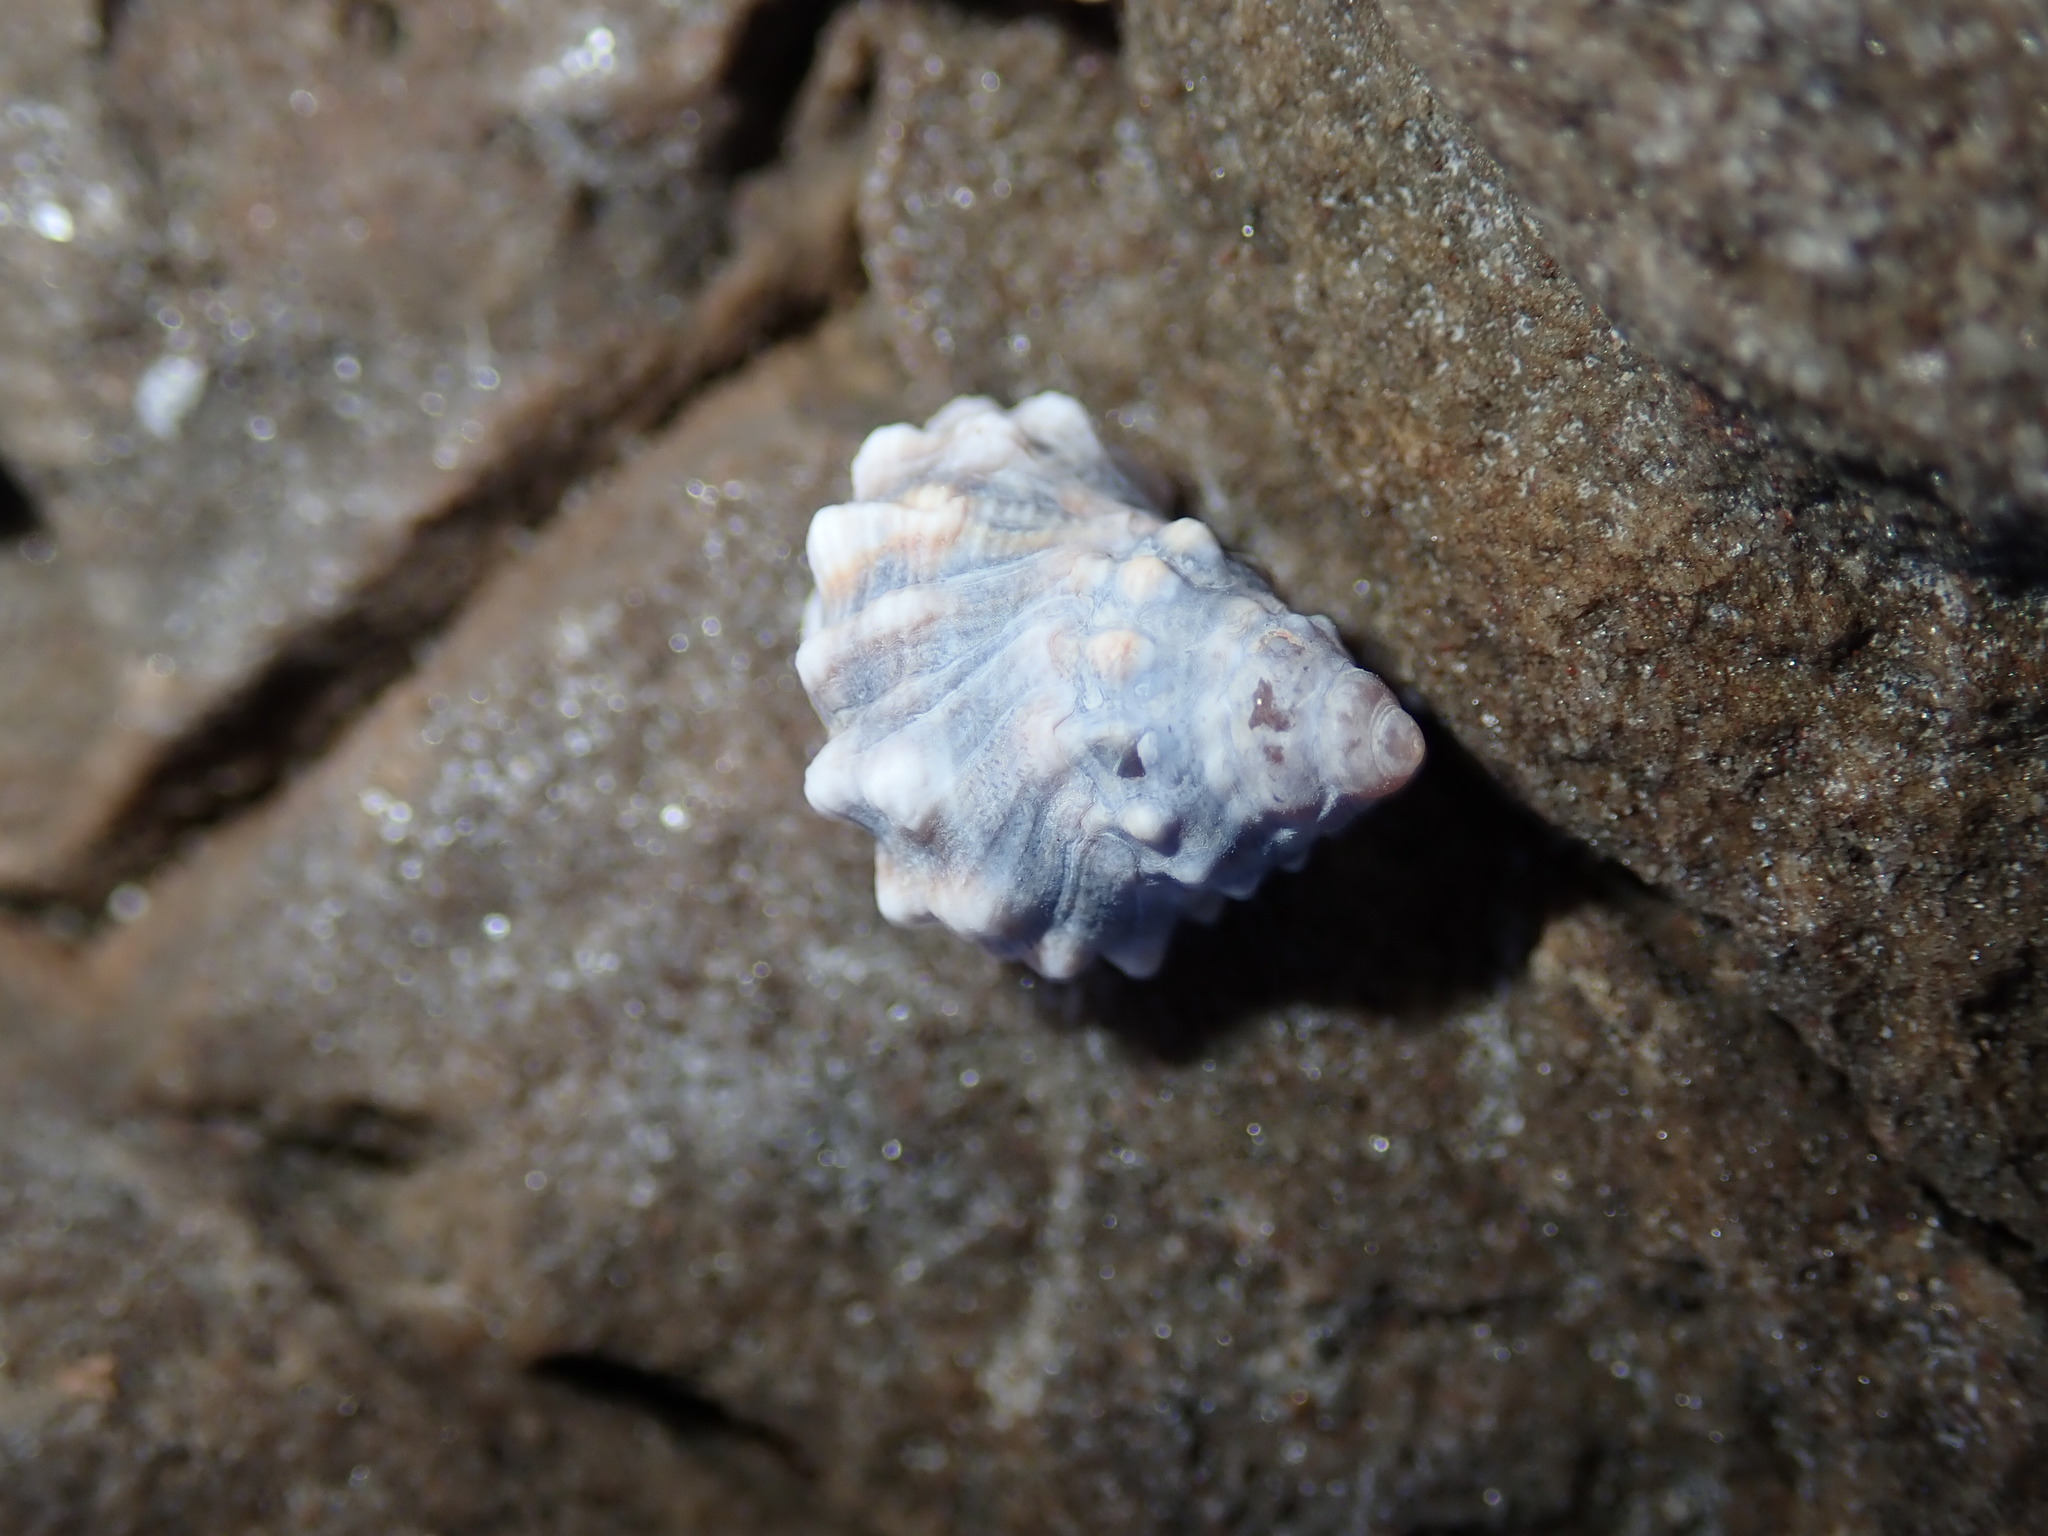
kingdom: Animalia
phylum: Mollusca
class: Gastropoda
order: Littorinimorpha
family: Littorinidae
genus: Nodilittorina
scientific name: Nodilittorina pyramidalis
